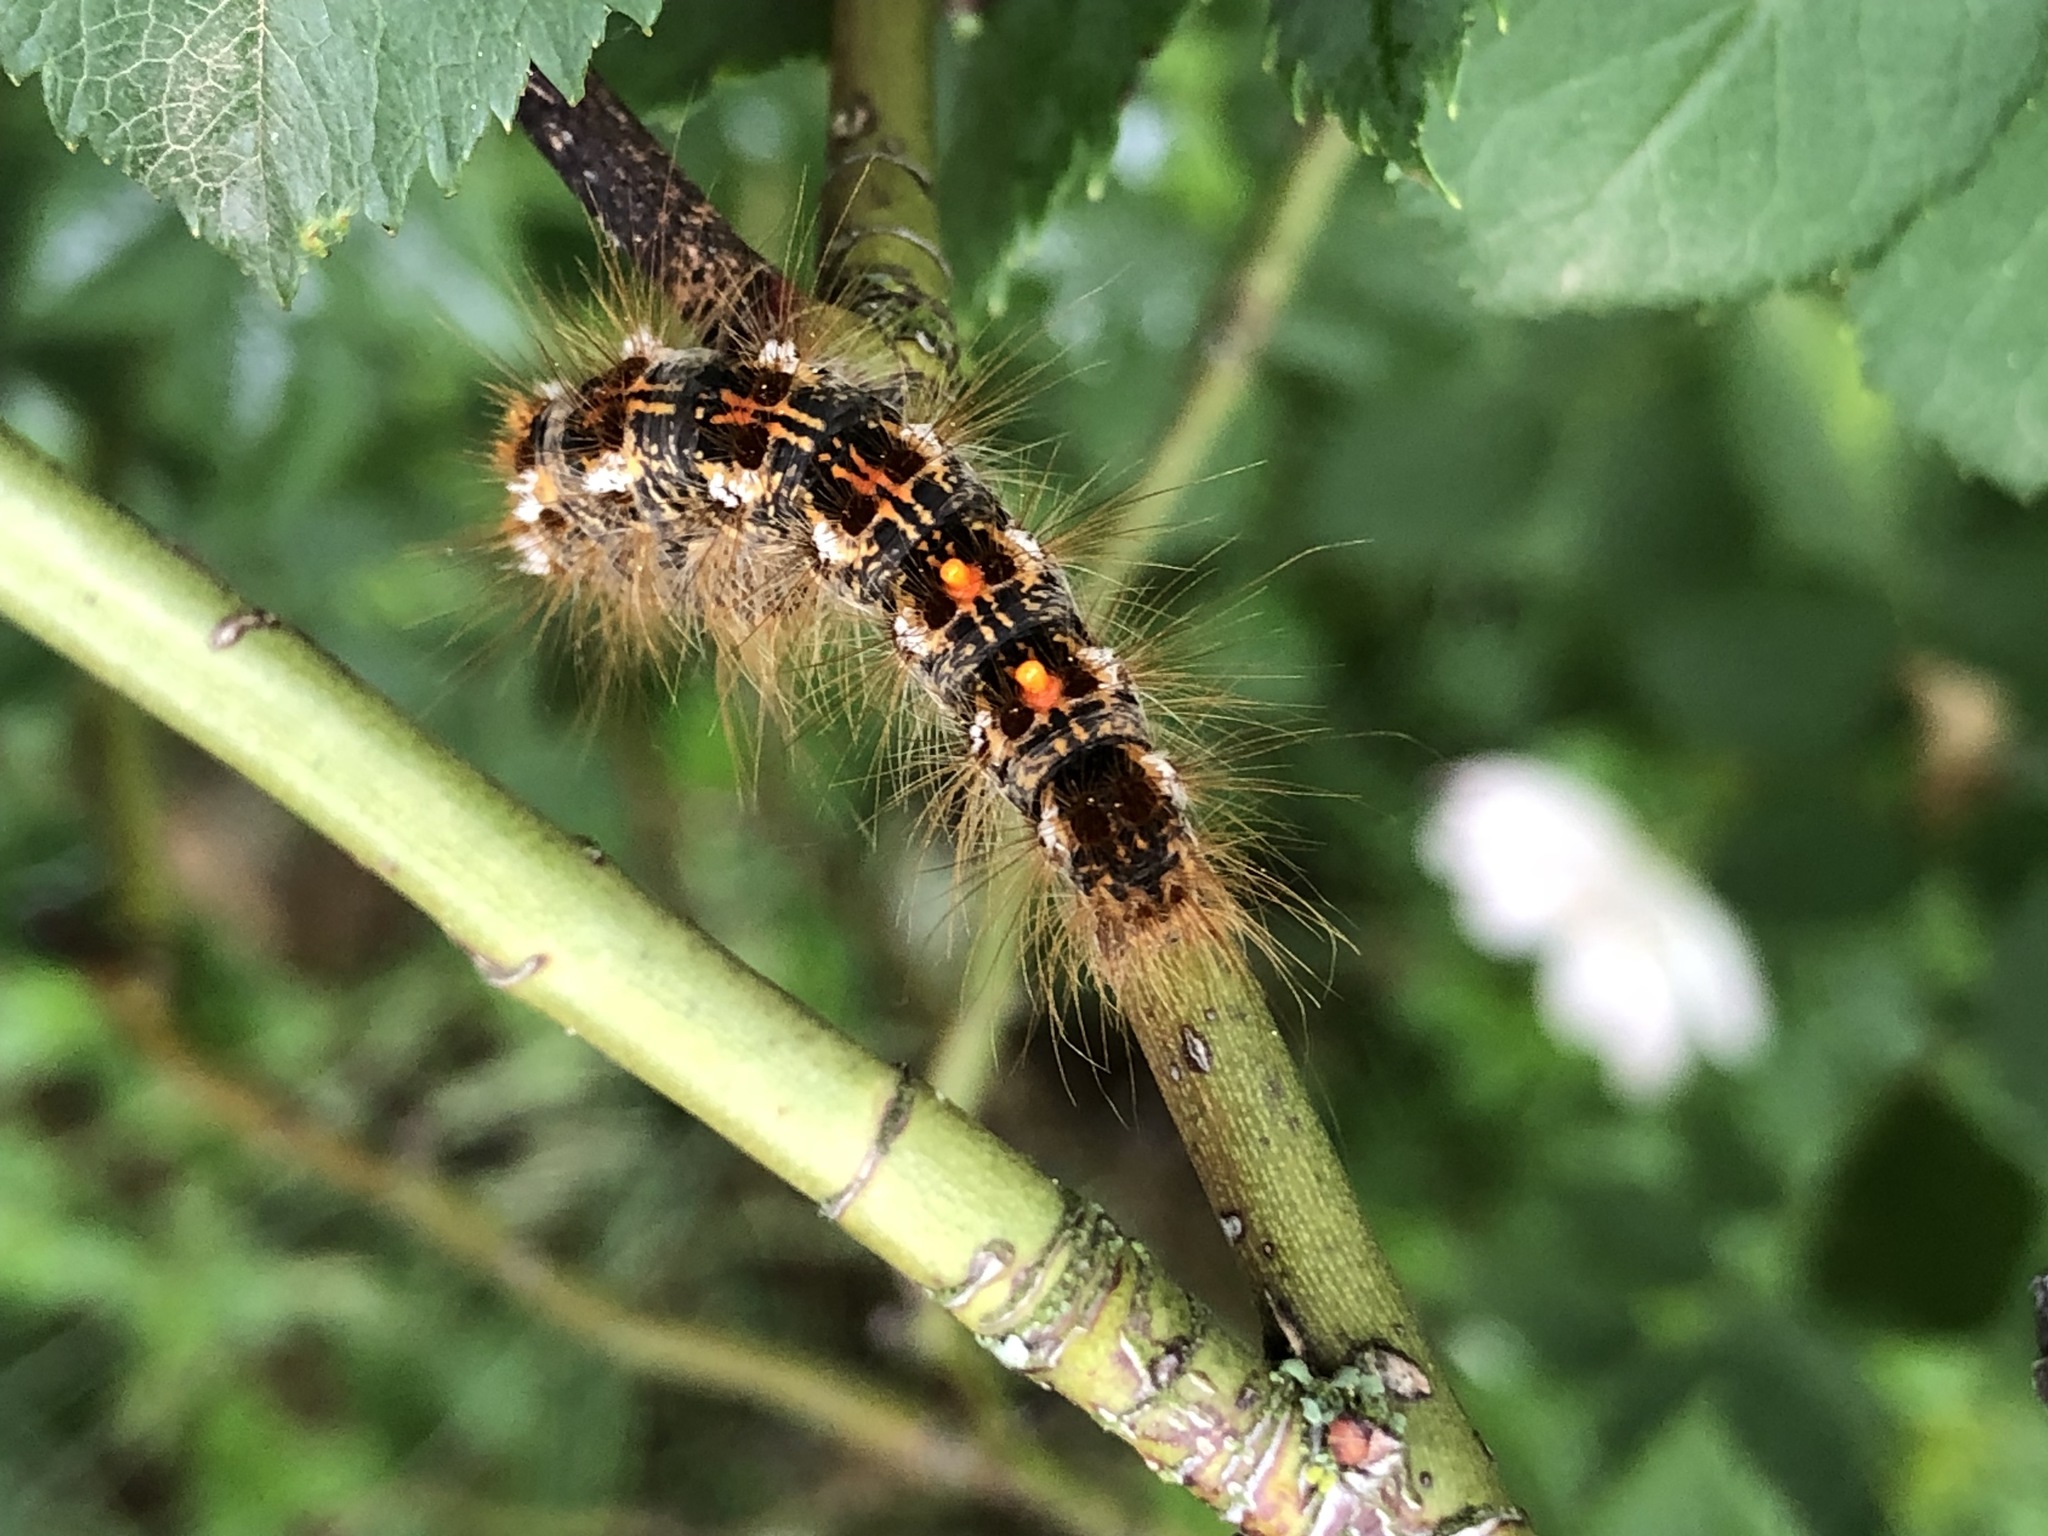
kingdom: Animalia
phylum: Arthropoda
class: Insecta
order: Lepidoptera
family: Erebidae
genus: Euproctis
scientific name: Euproctis chrysorrhoea
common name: Brown-tail
